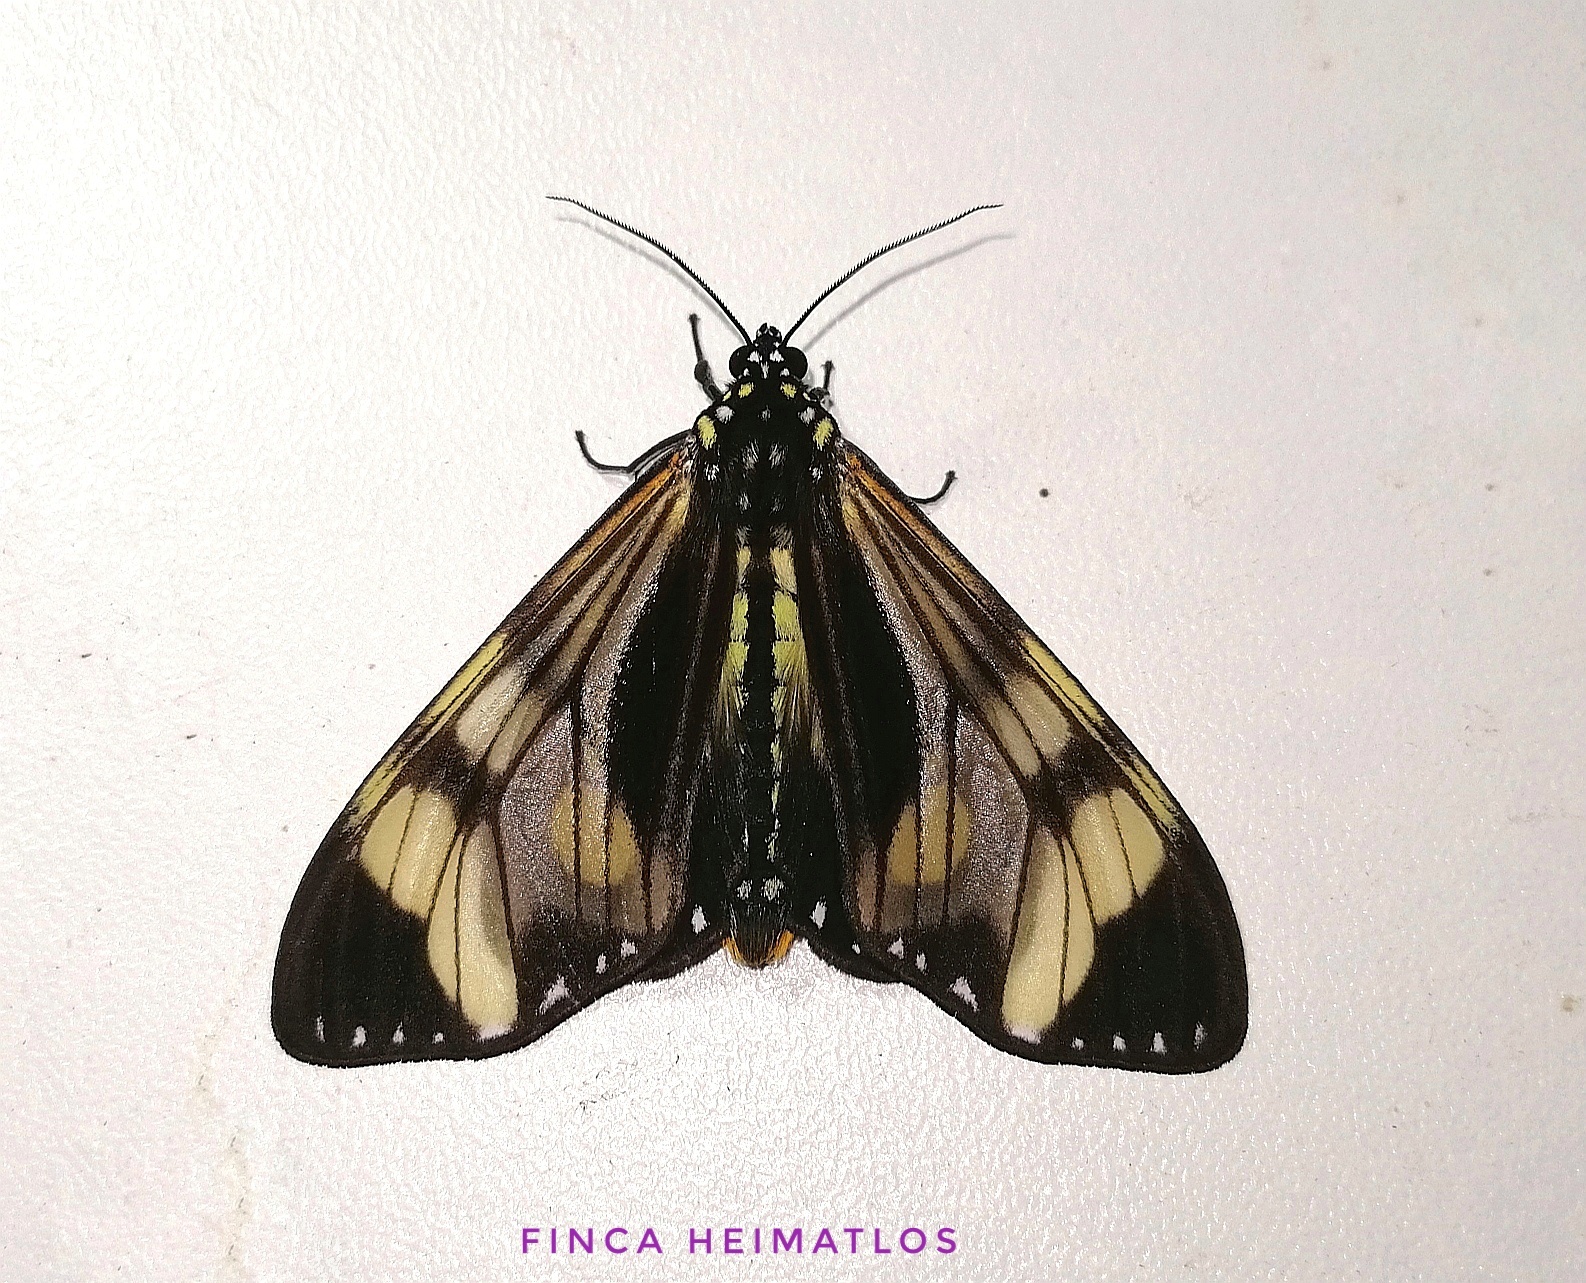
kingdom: Animalia
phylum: Arthropoda
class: Insecta
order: Lepidoptera
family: Erebidae
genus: Dysschema
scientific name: Dysschema eurocilia
